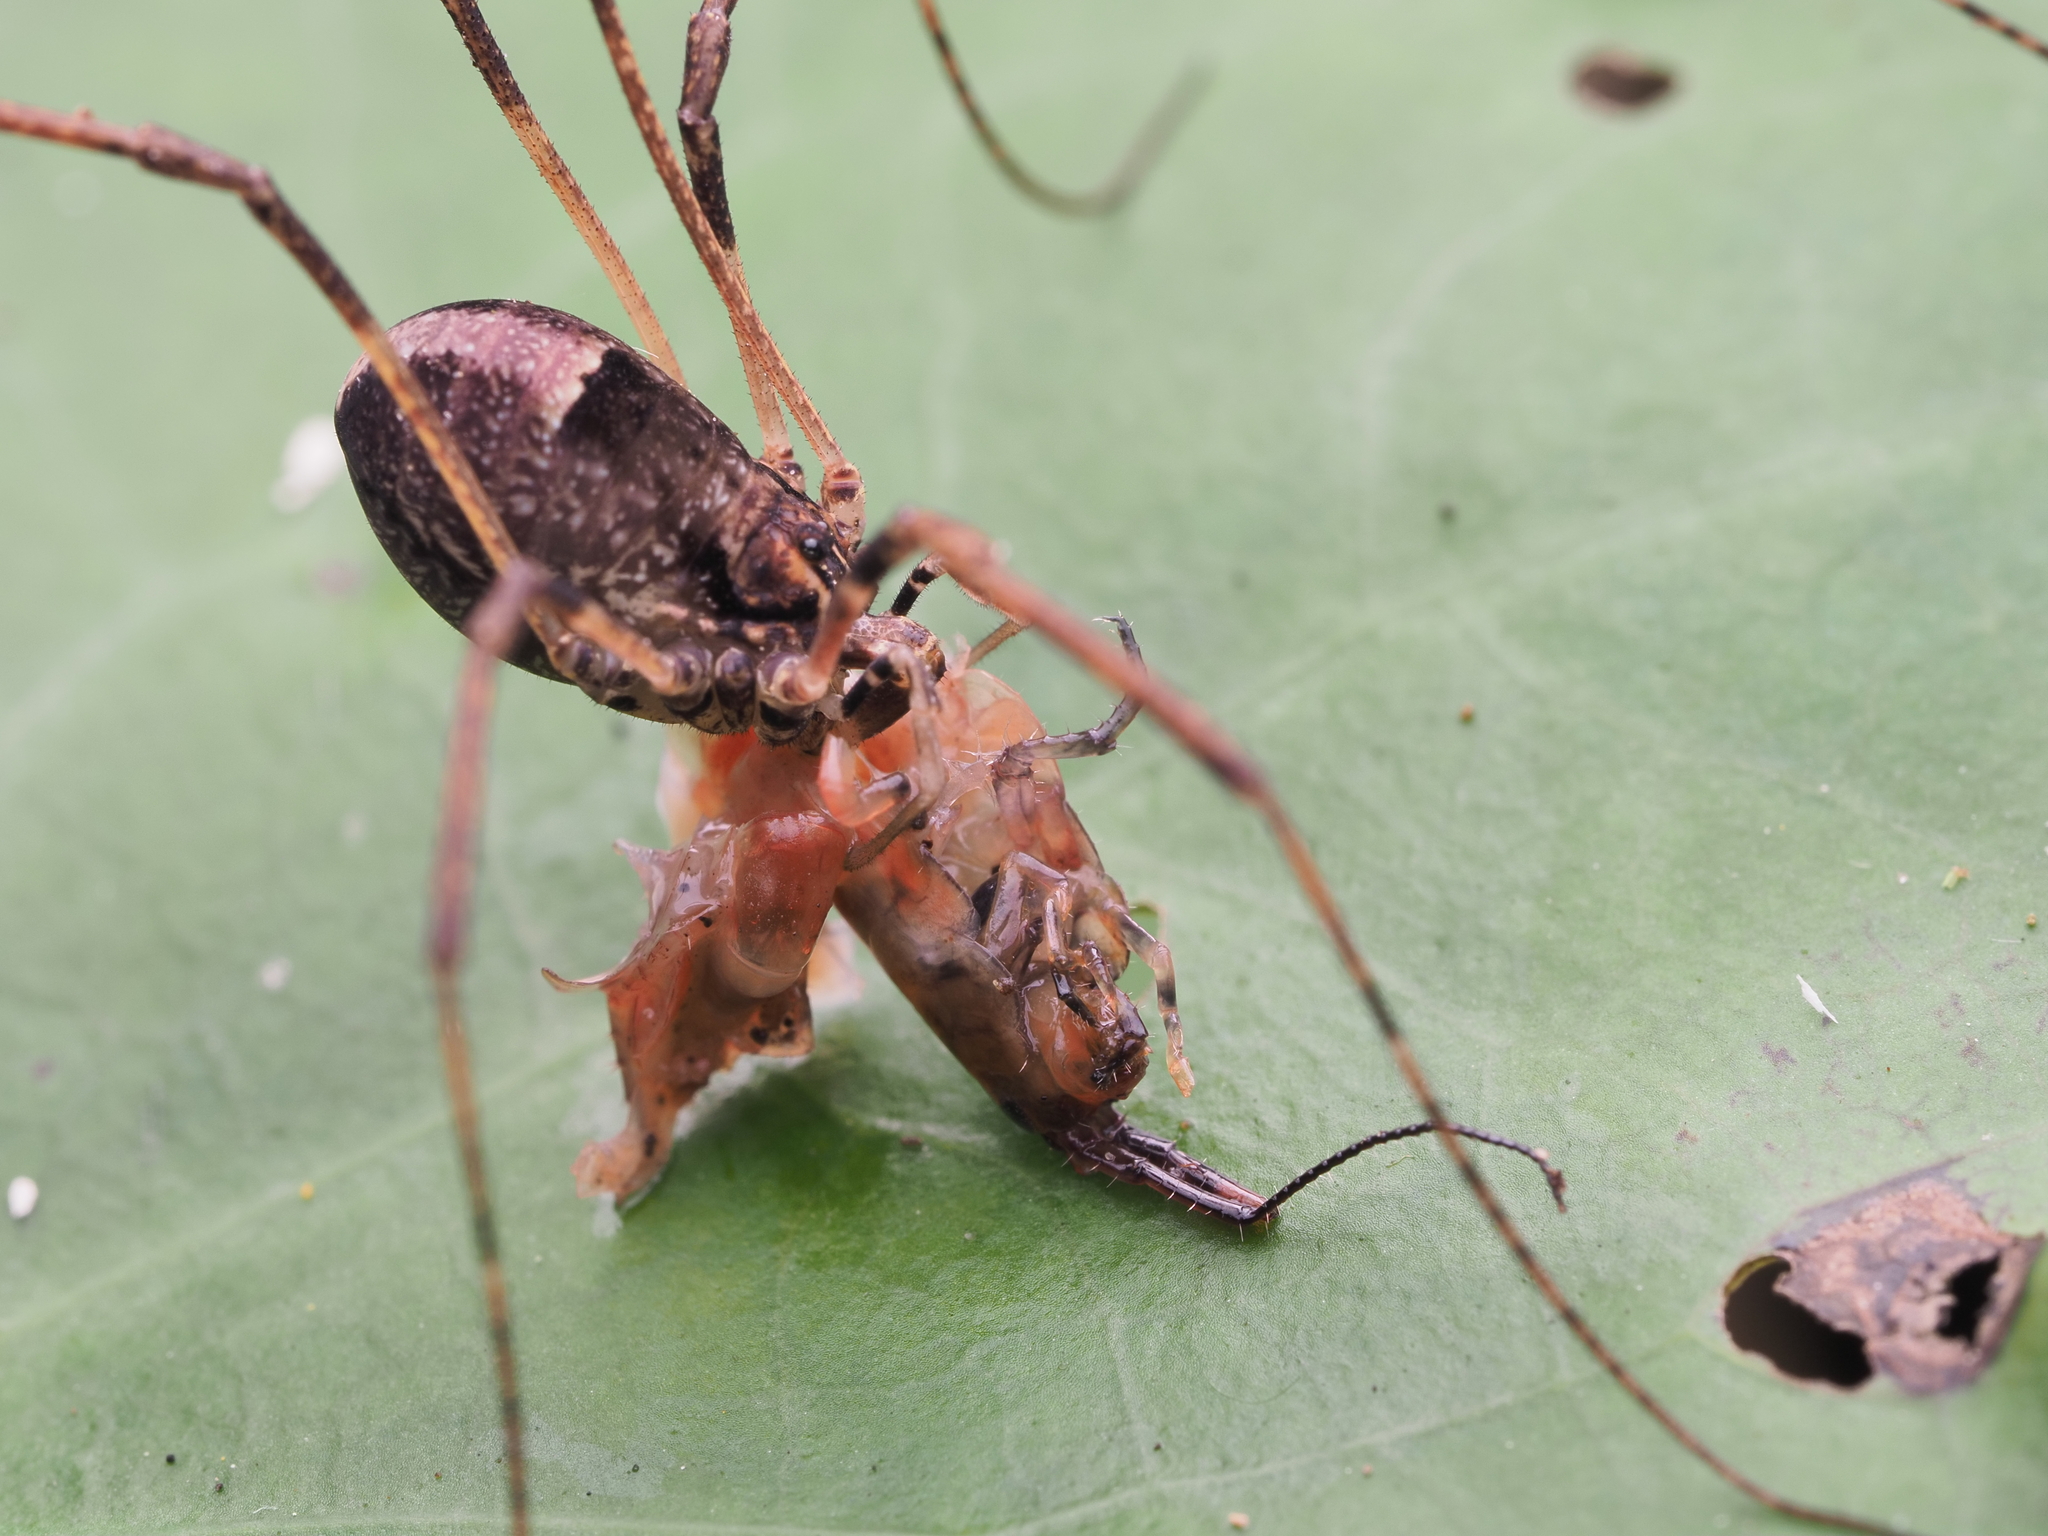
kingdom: Animalia
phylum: Arthropoda
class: Arachnida
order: Opiliones
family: Neopilionidae
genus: Forsteropsalis
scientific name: Forsteropsalis inconstans
